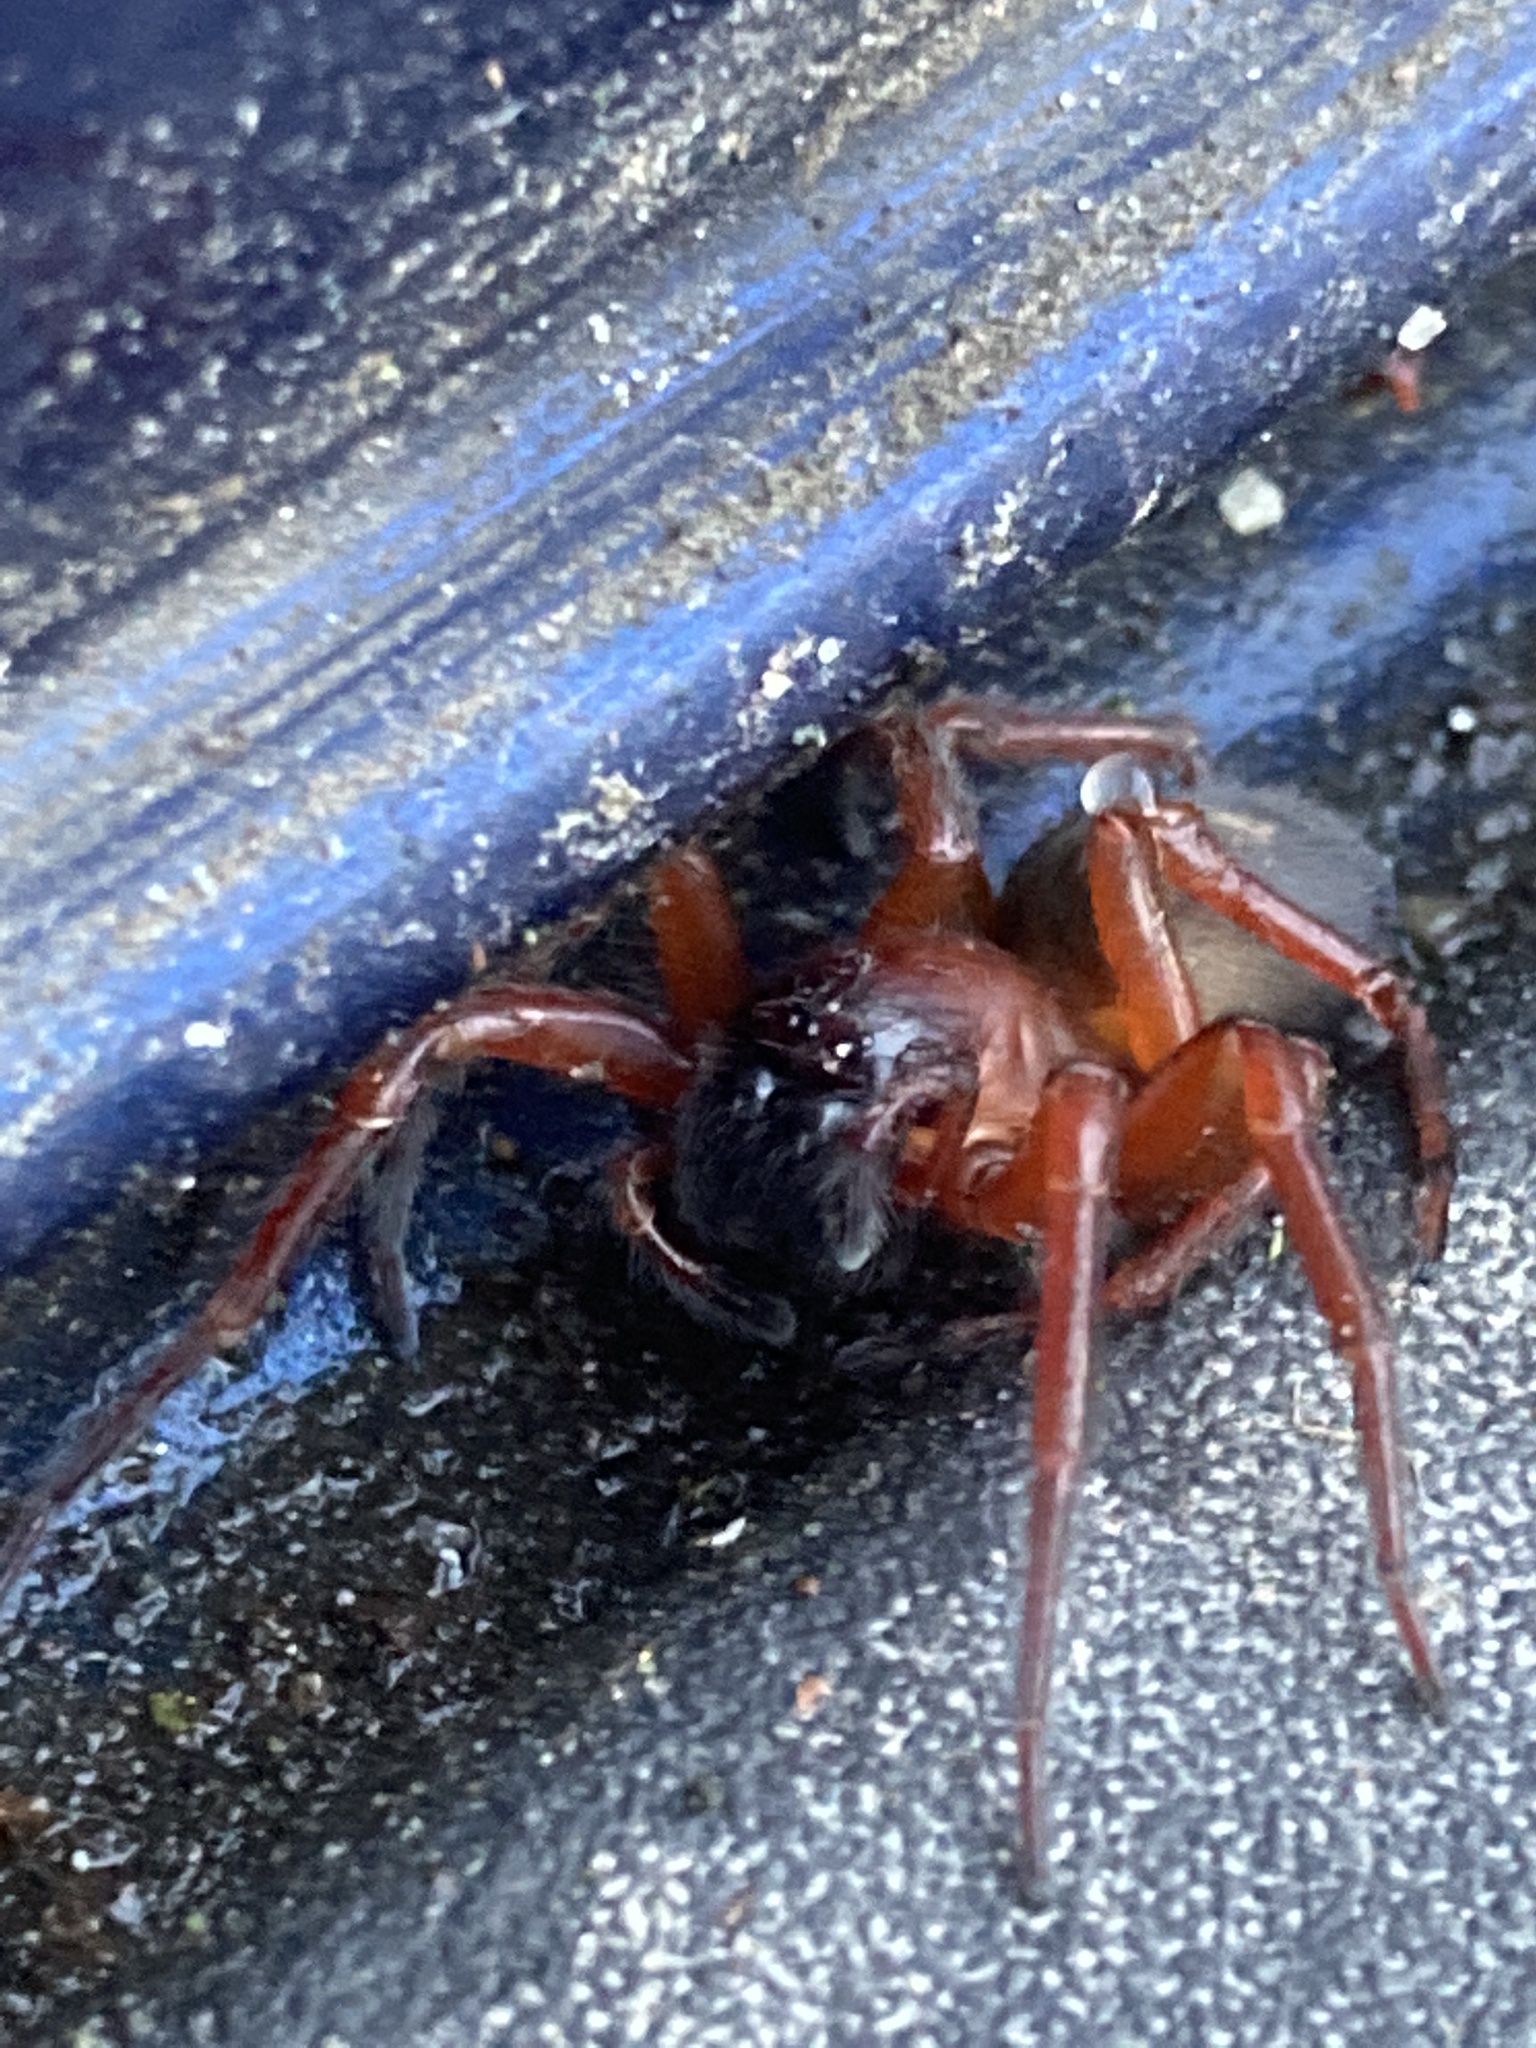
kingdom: Animalia
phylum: Arthropoda
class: Arachnida
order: Araneae
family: Amaurobiidae
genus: Callobius
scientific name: Callobius severus
